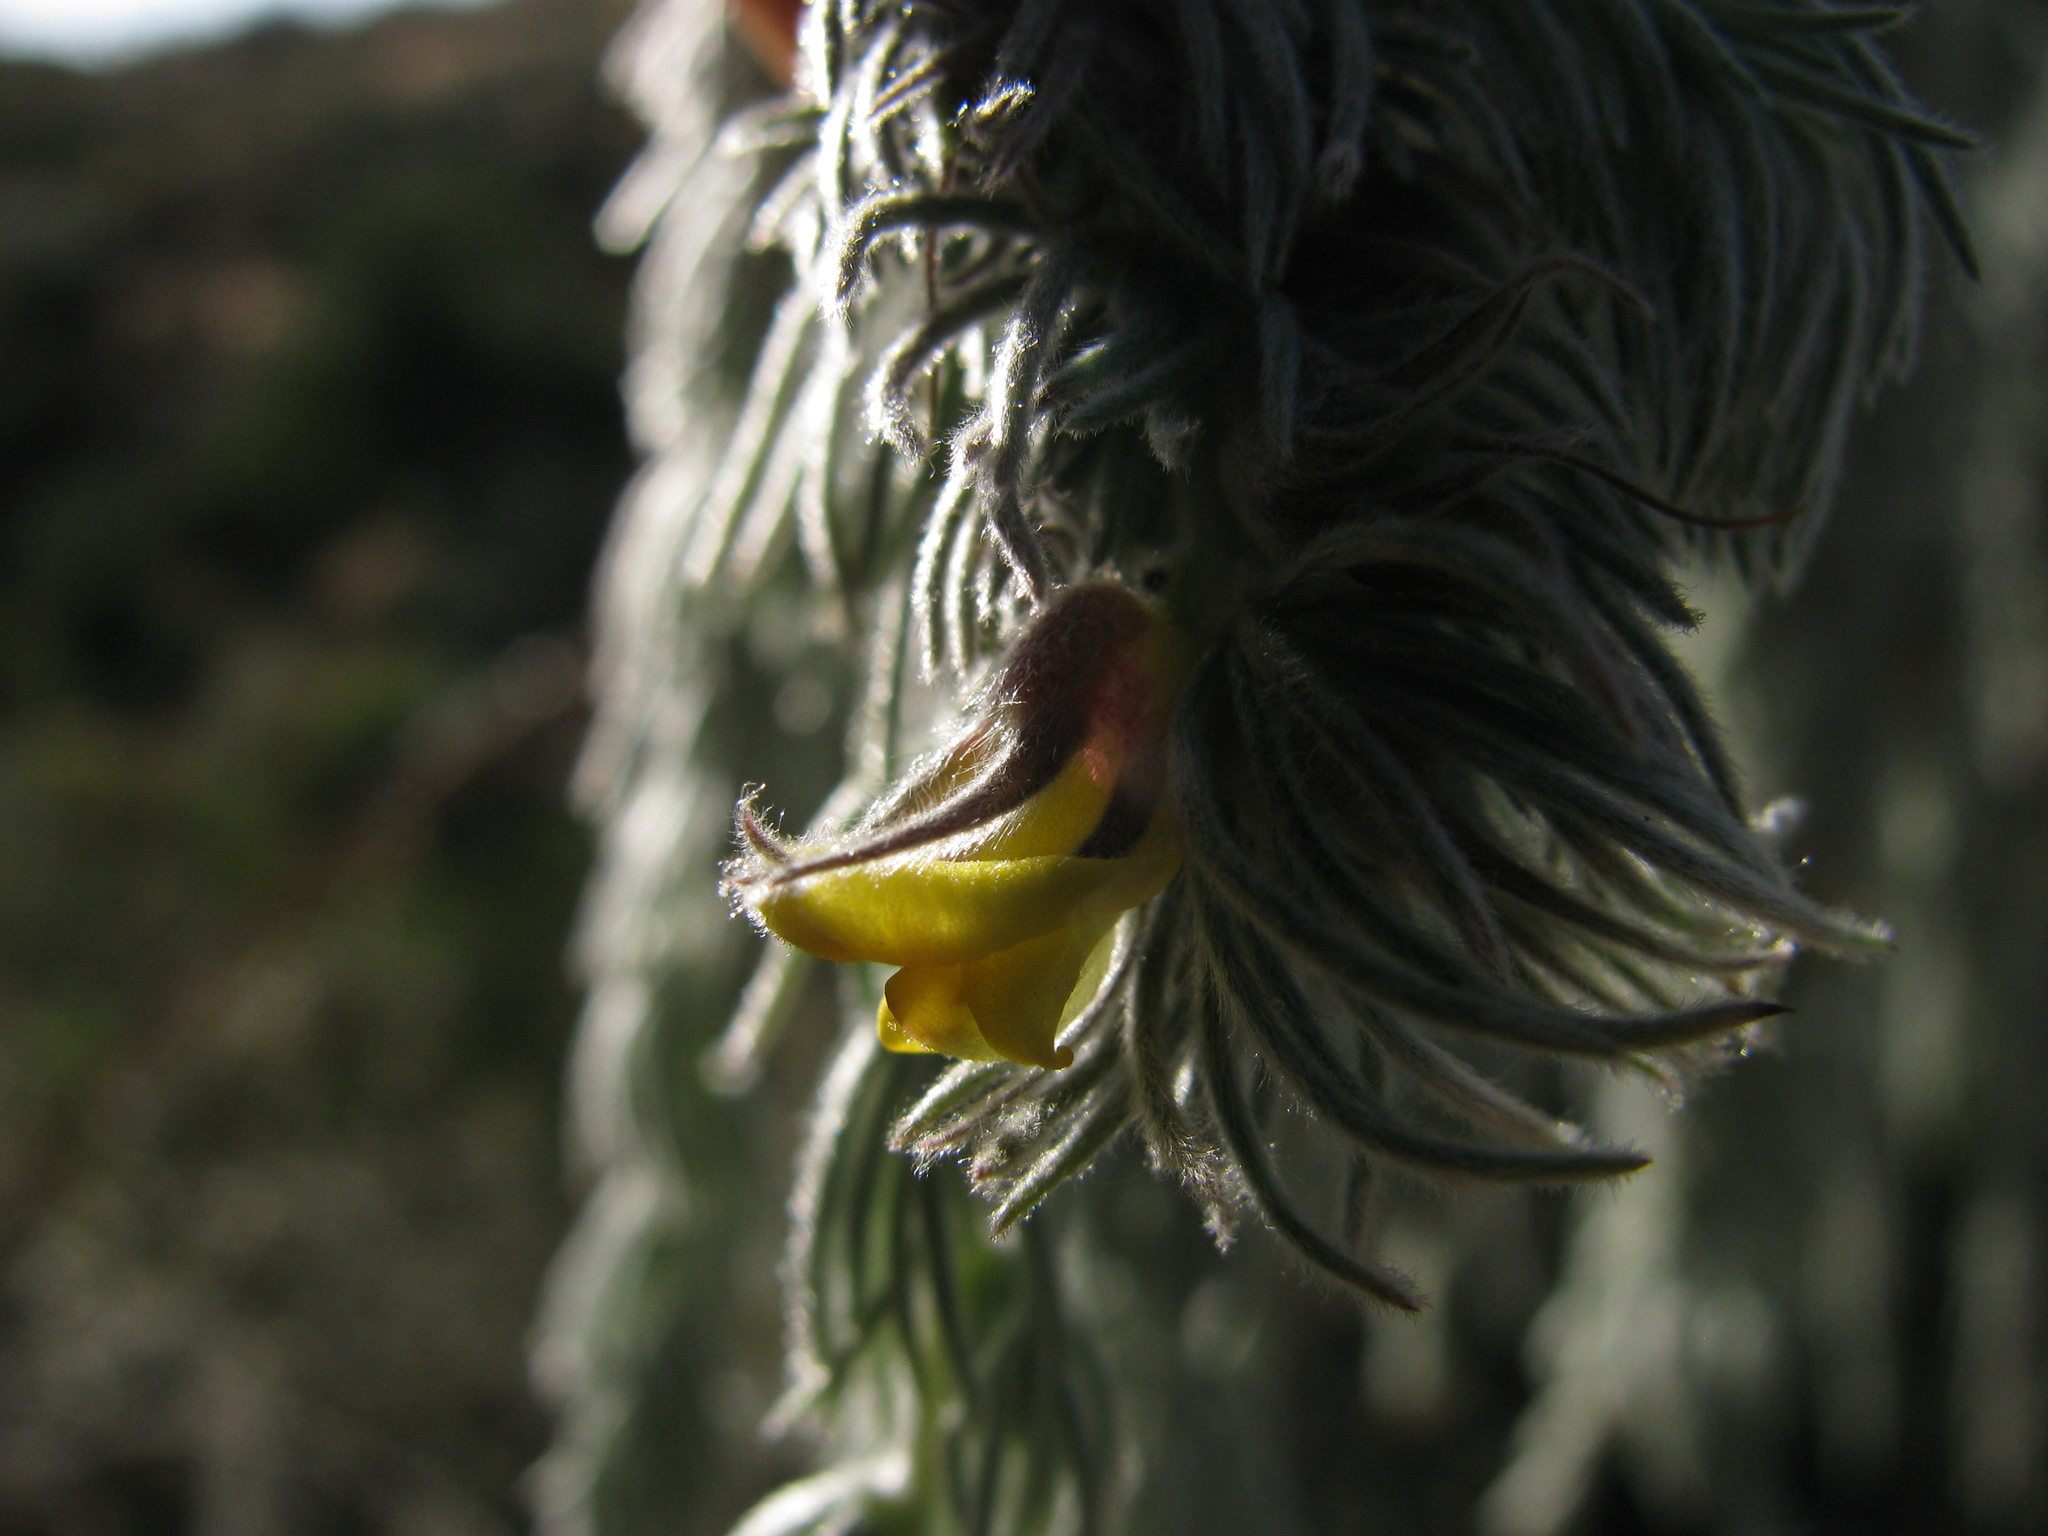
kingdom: Plantae
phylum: Tracheophyta
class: Magnoliopsida
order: Fabales
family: Fabaceae
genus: Aspalathus
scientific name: Aspalathus usnoides
